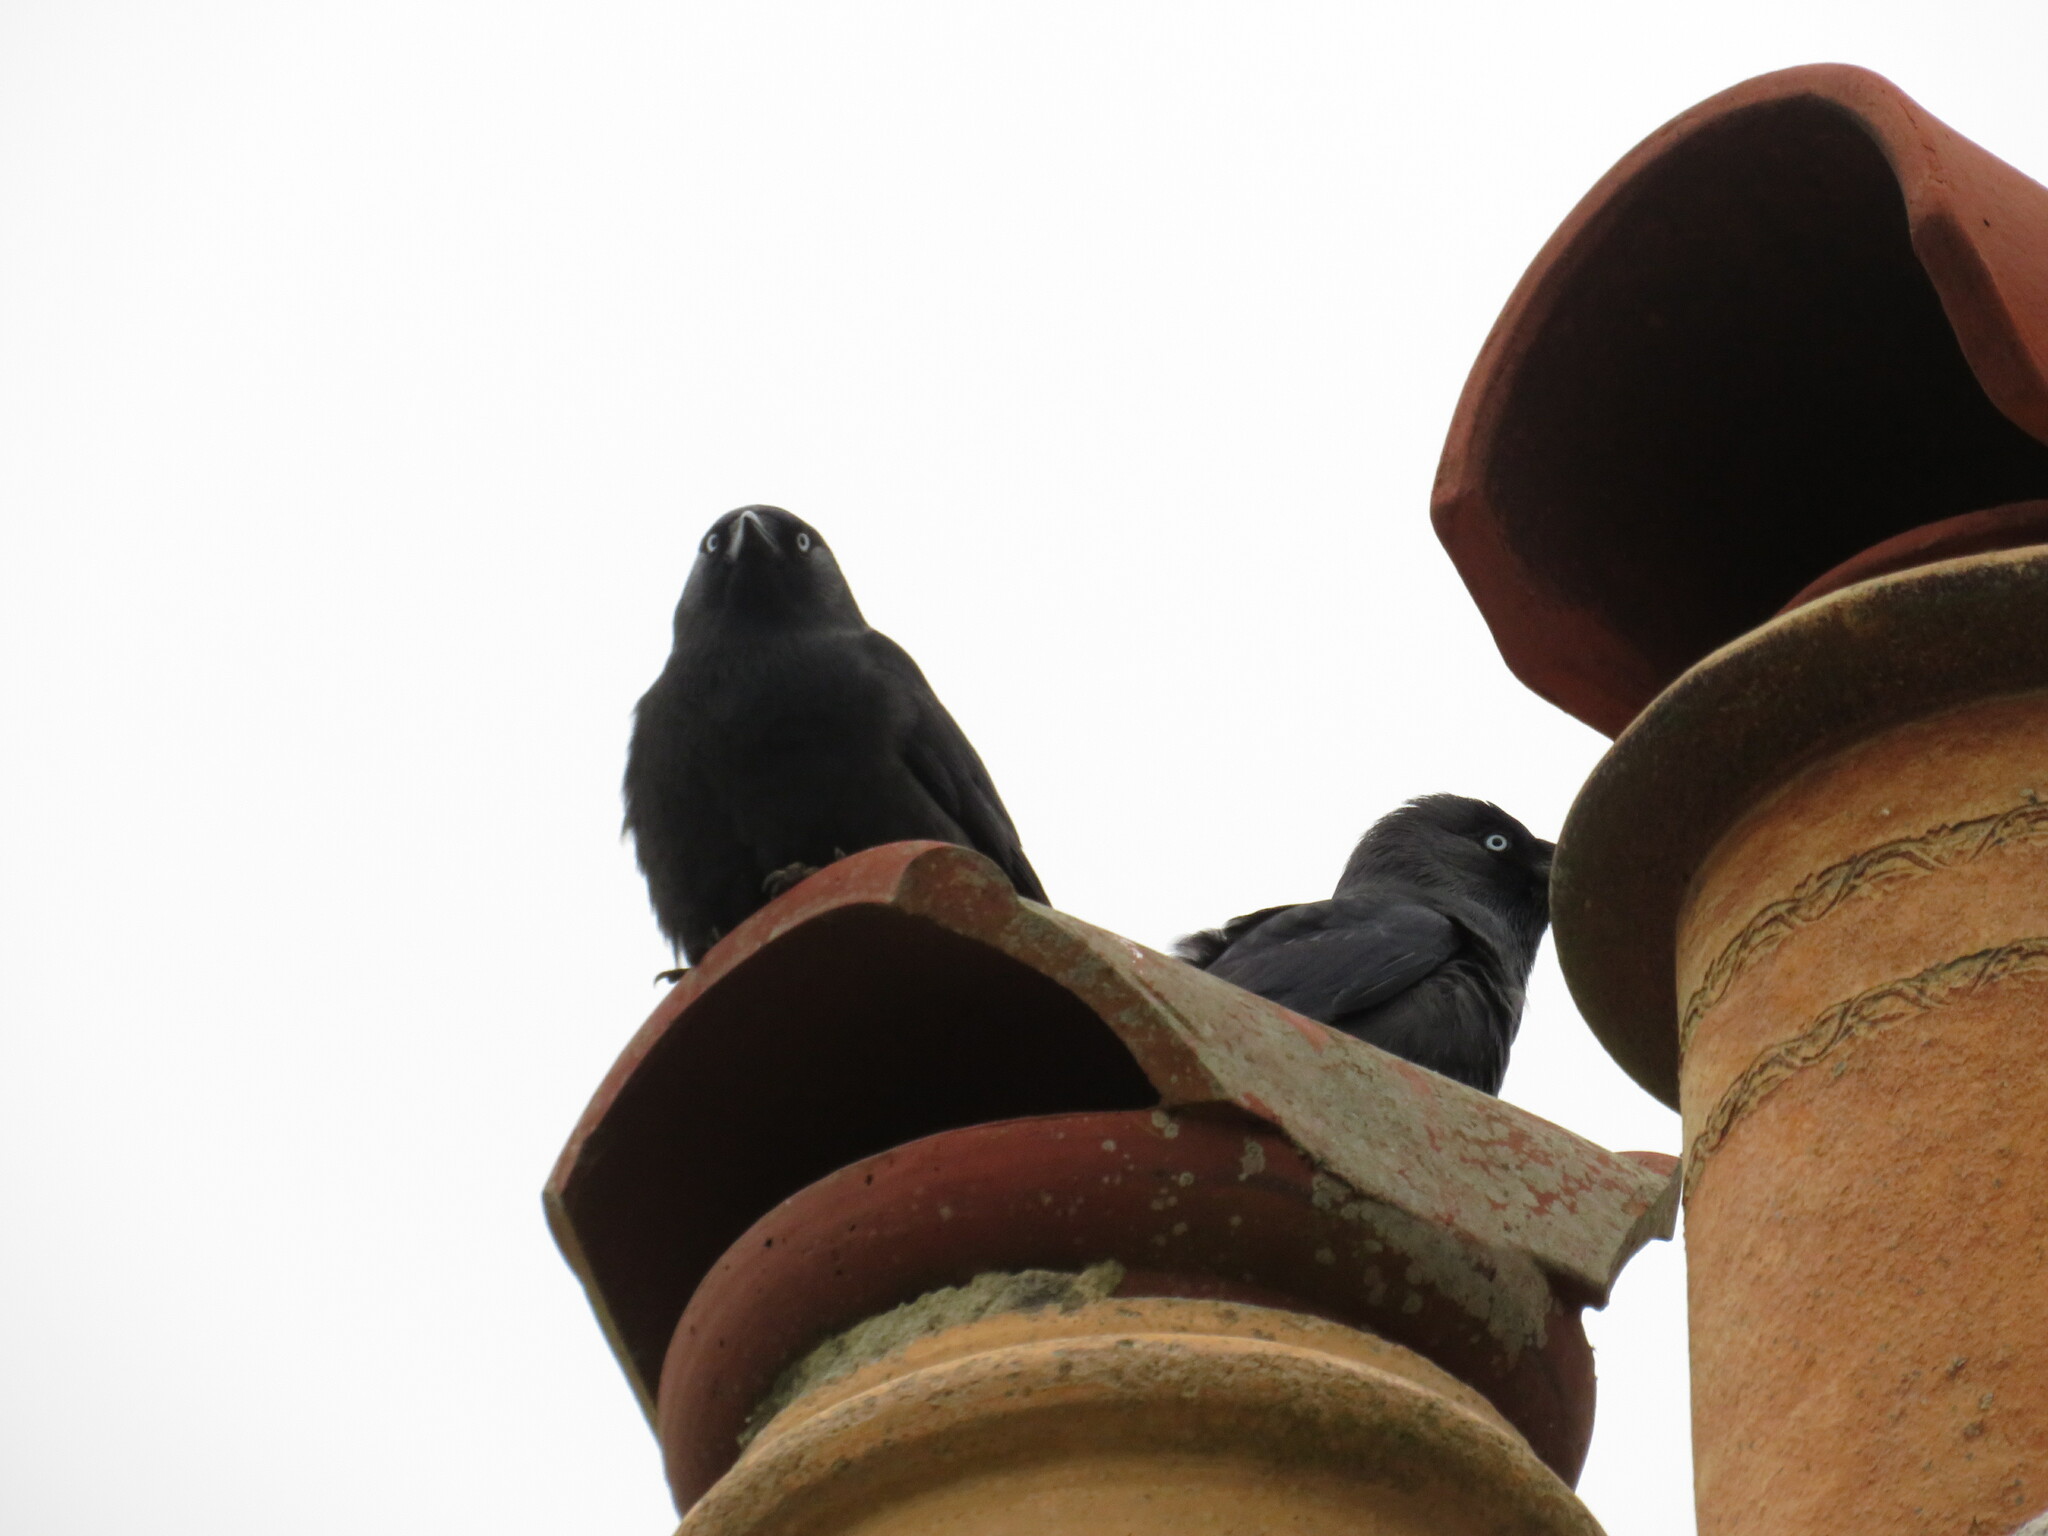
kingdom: Animalia
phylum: Chordata
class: Aves
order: Passeriformes
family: Corvidae
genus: Coloeus
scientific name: Coloeus monedula
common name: Western jackdaw
